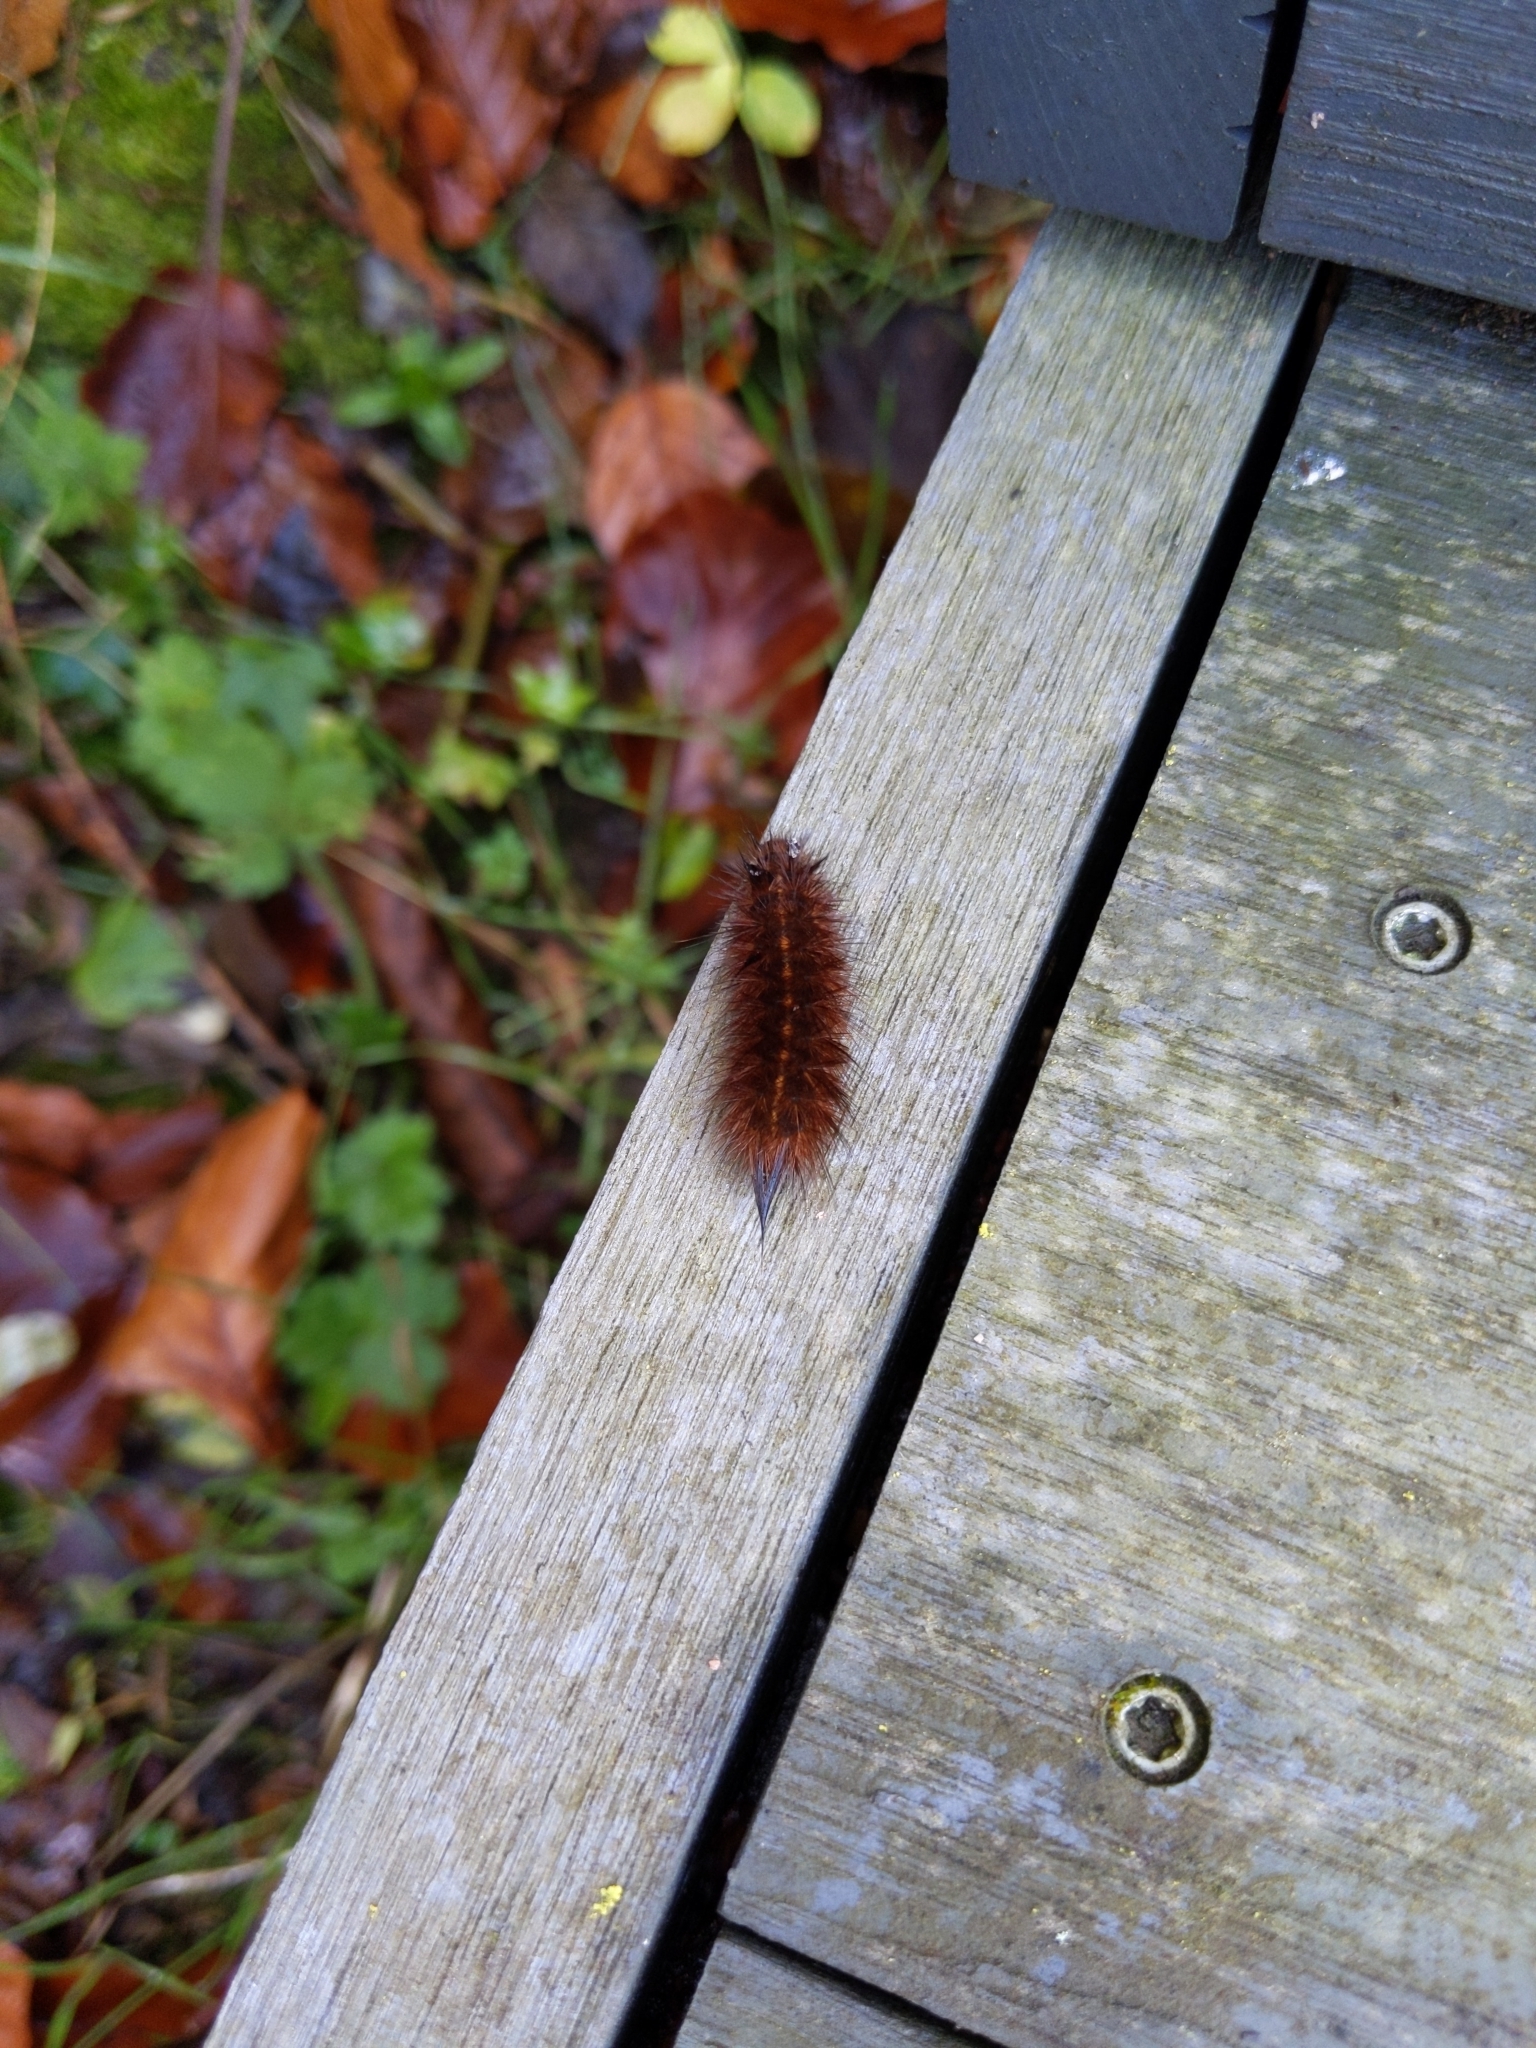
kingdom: Animalia
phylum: Arthropoda
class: Insecta
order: Lepidoptera
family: Erebidae
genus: Phragmatobia
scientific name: Phragmatobia fuliginosa
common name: Ruby tiger
